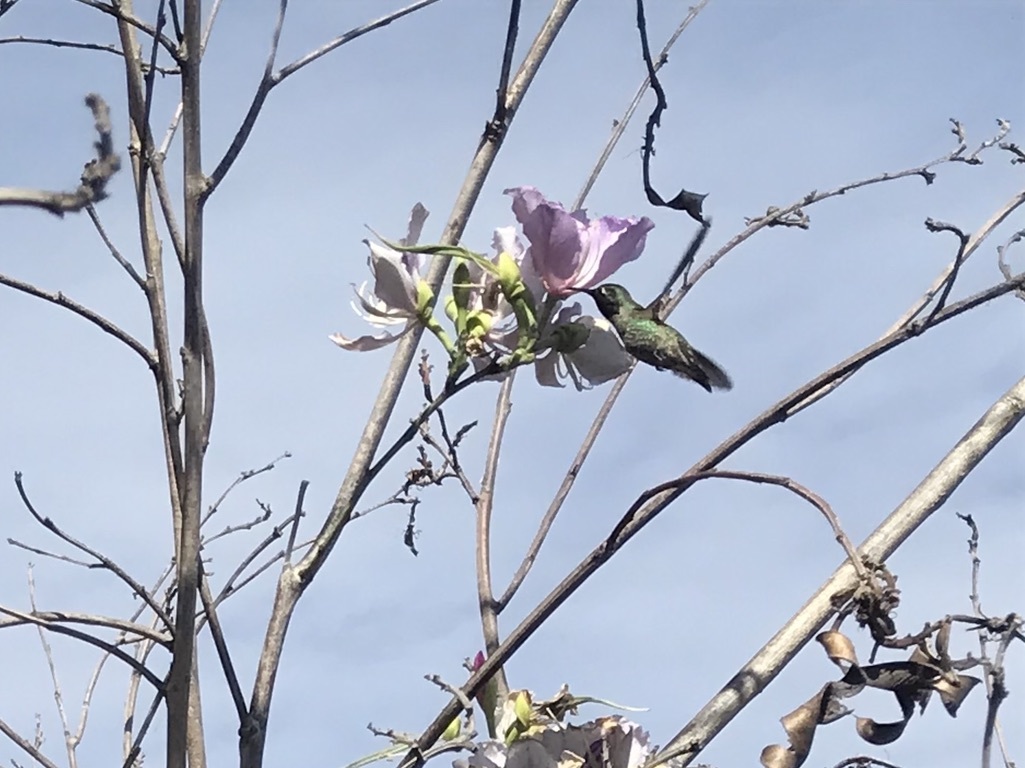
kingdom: Animalia
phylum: Chordata
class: Aves
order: Apodiformes
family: Trochilidae
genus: Calypte
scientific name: Calypte anna
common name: Anna's hummingbird
